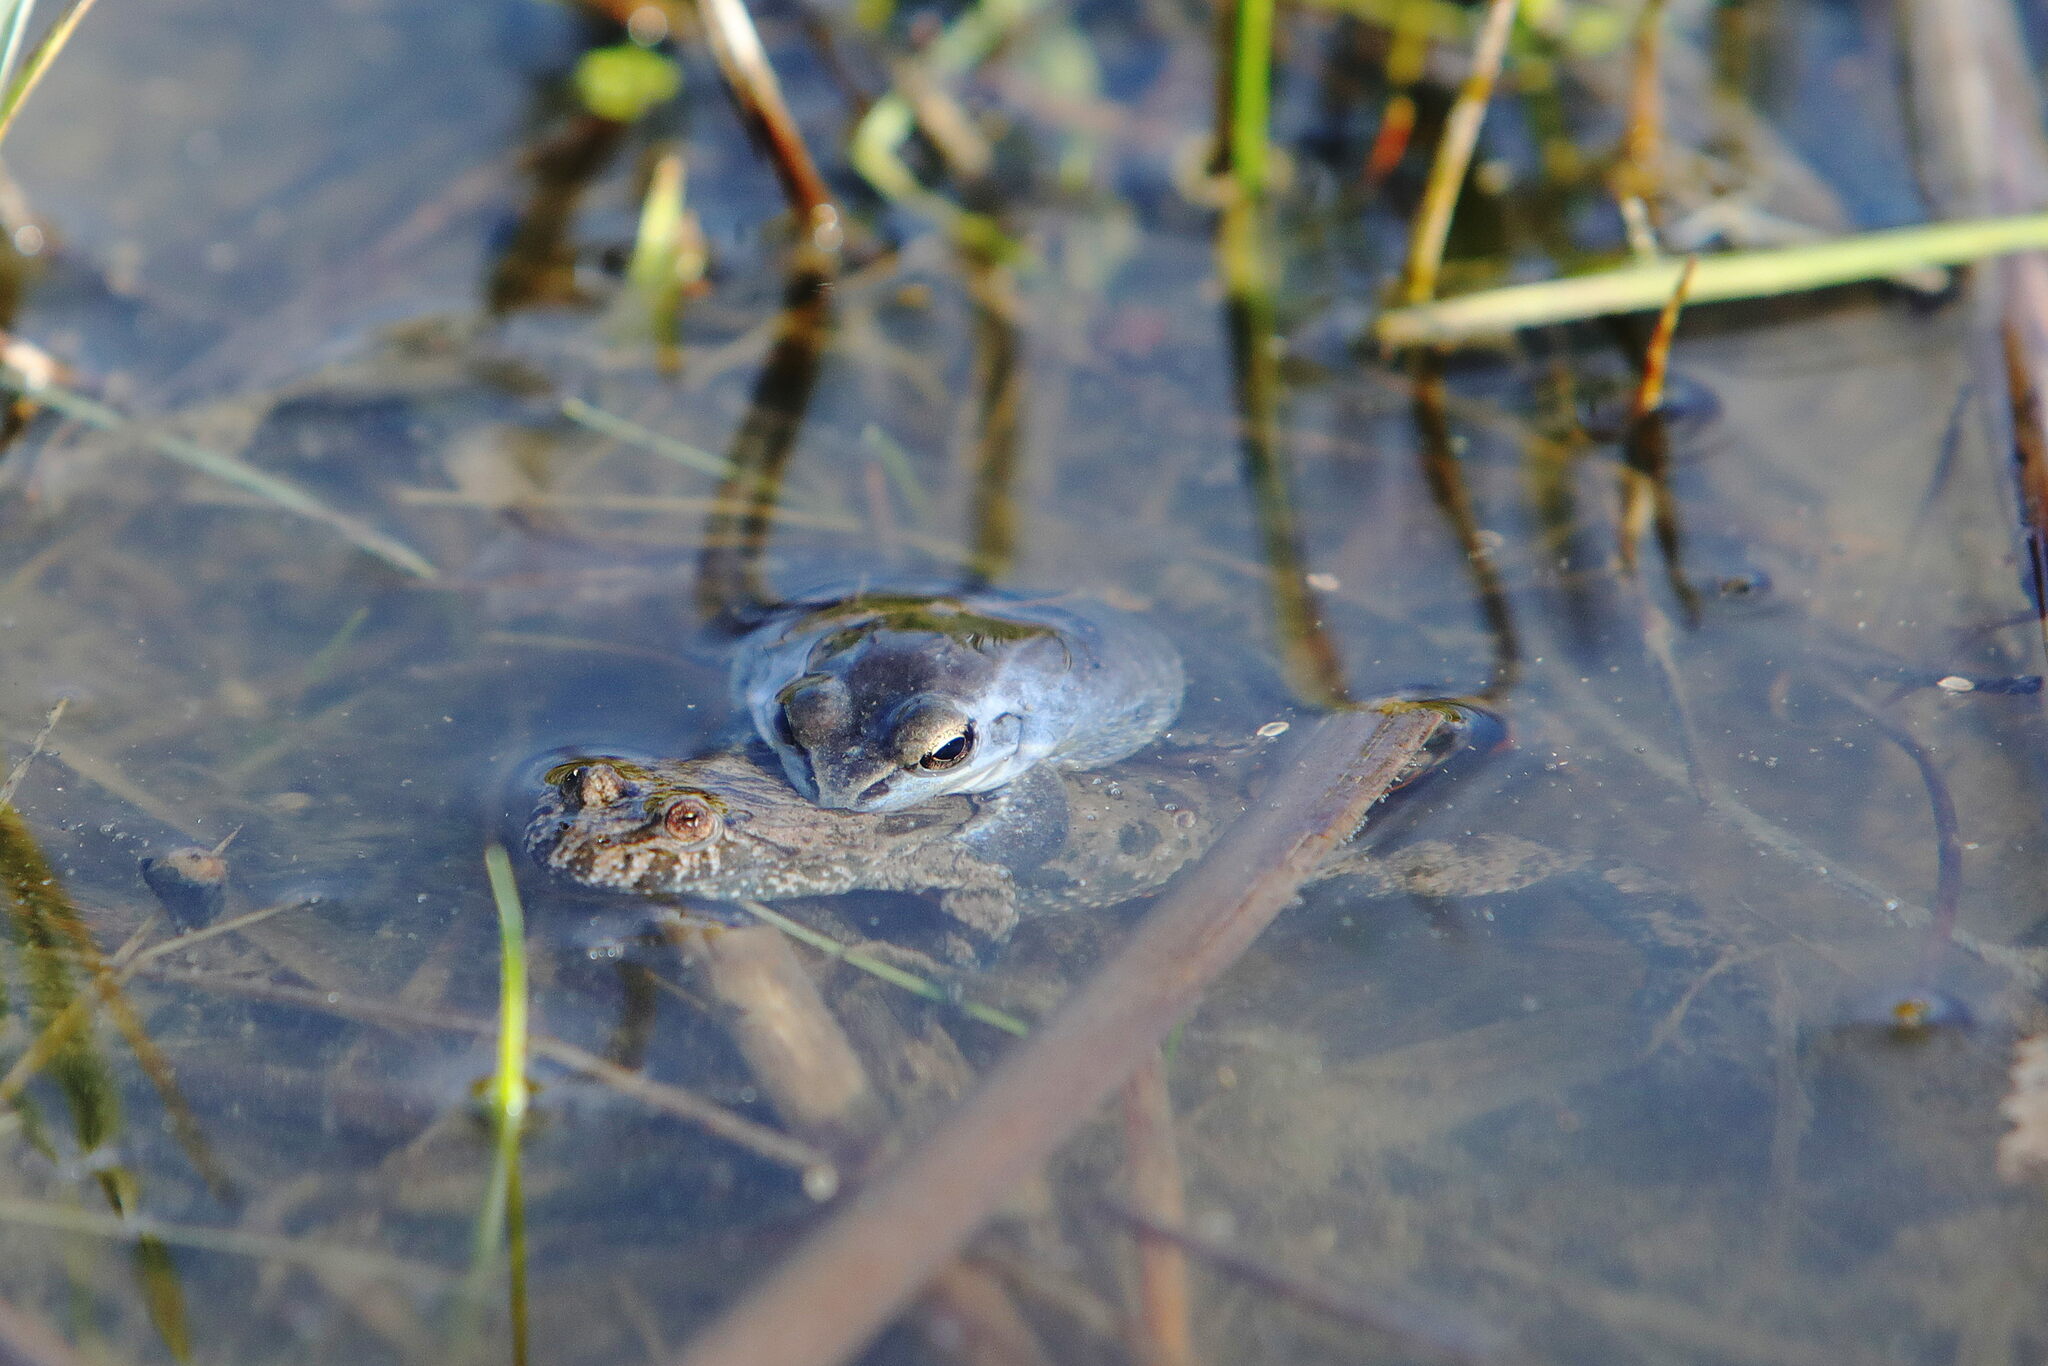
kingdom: Animalia
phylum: Chordata
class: Amphibia
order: Anura
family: Bombinatoridae
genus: Bombina
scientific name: Bombina bombina
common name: Fire-bellied toad
